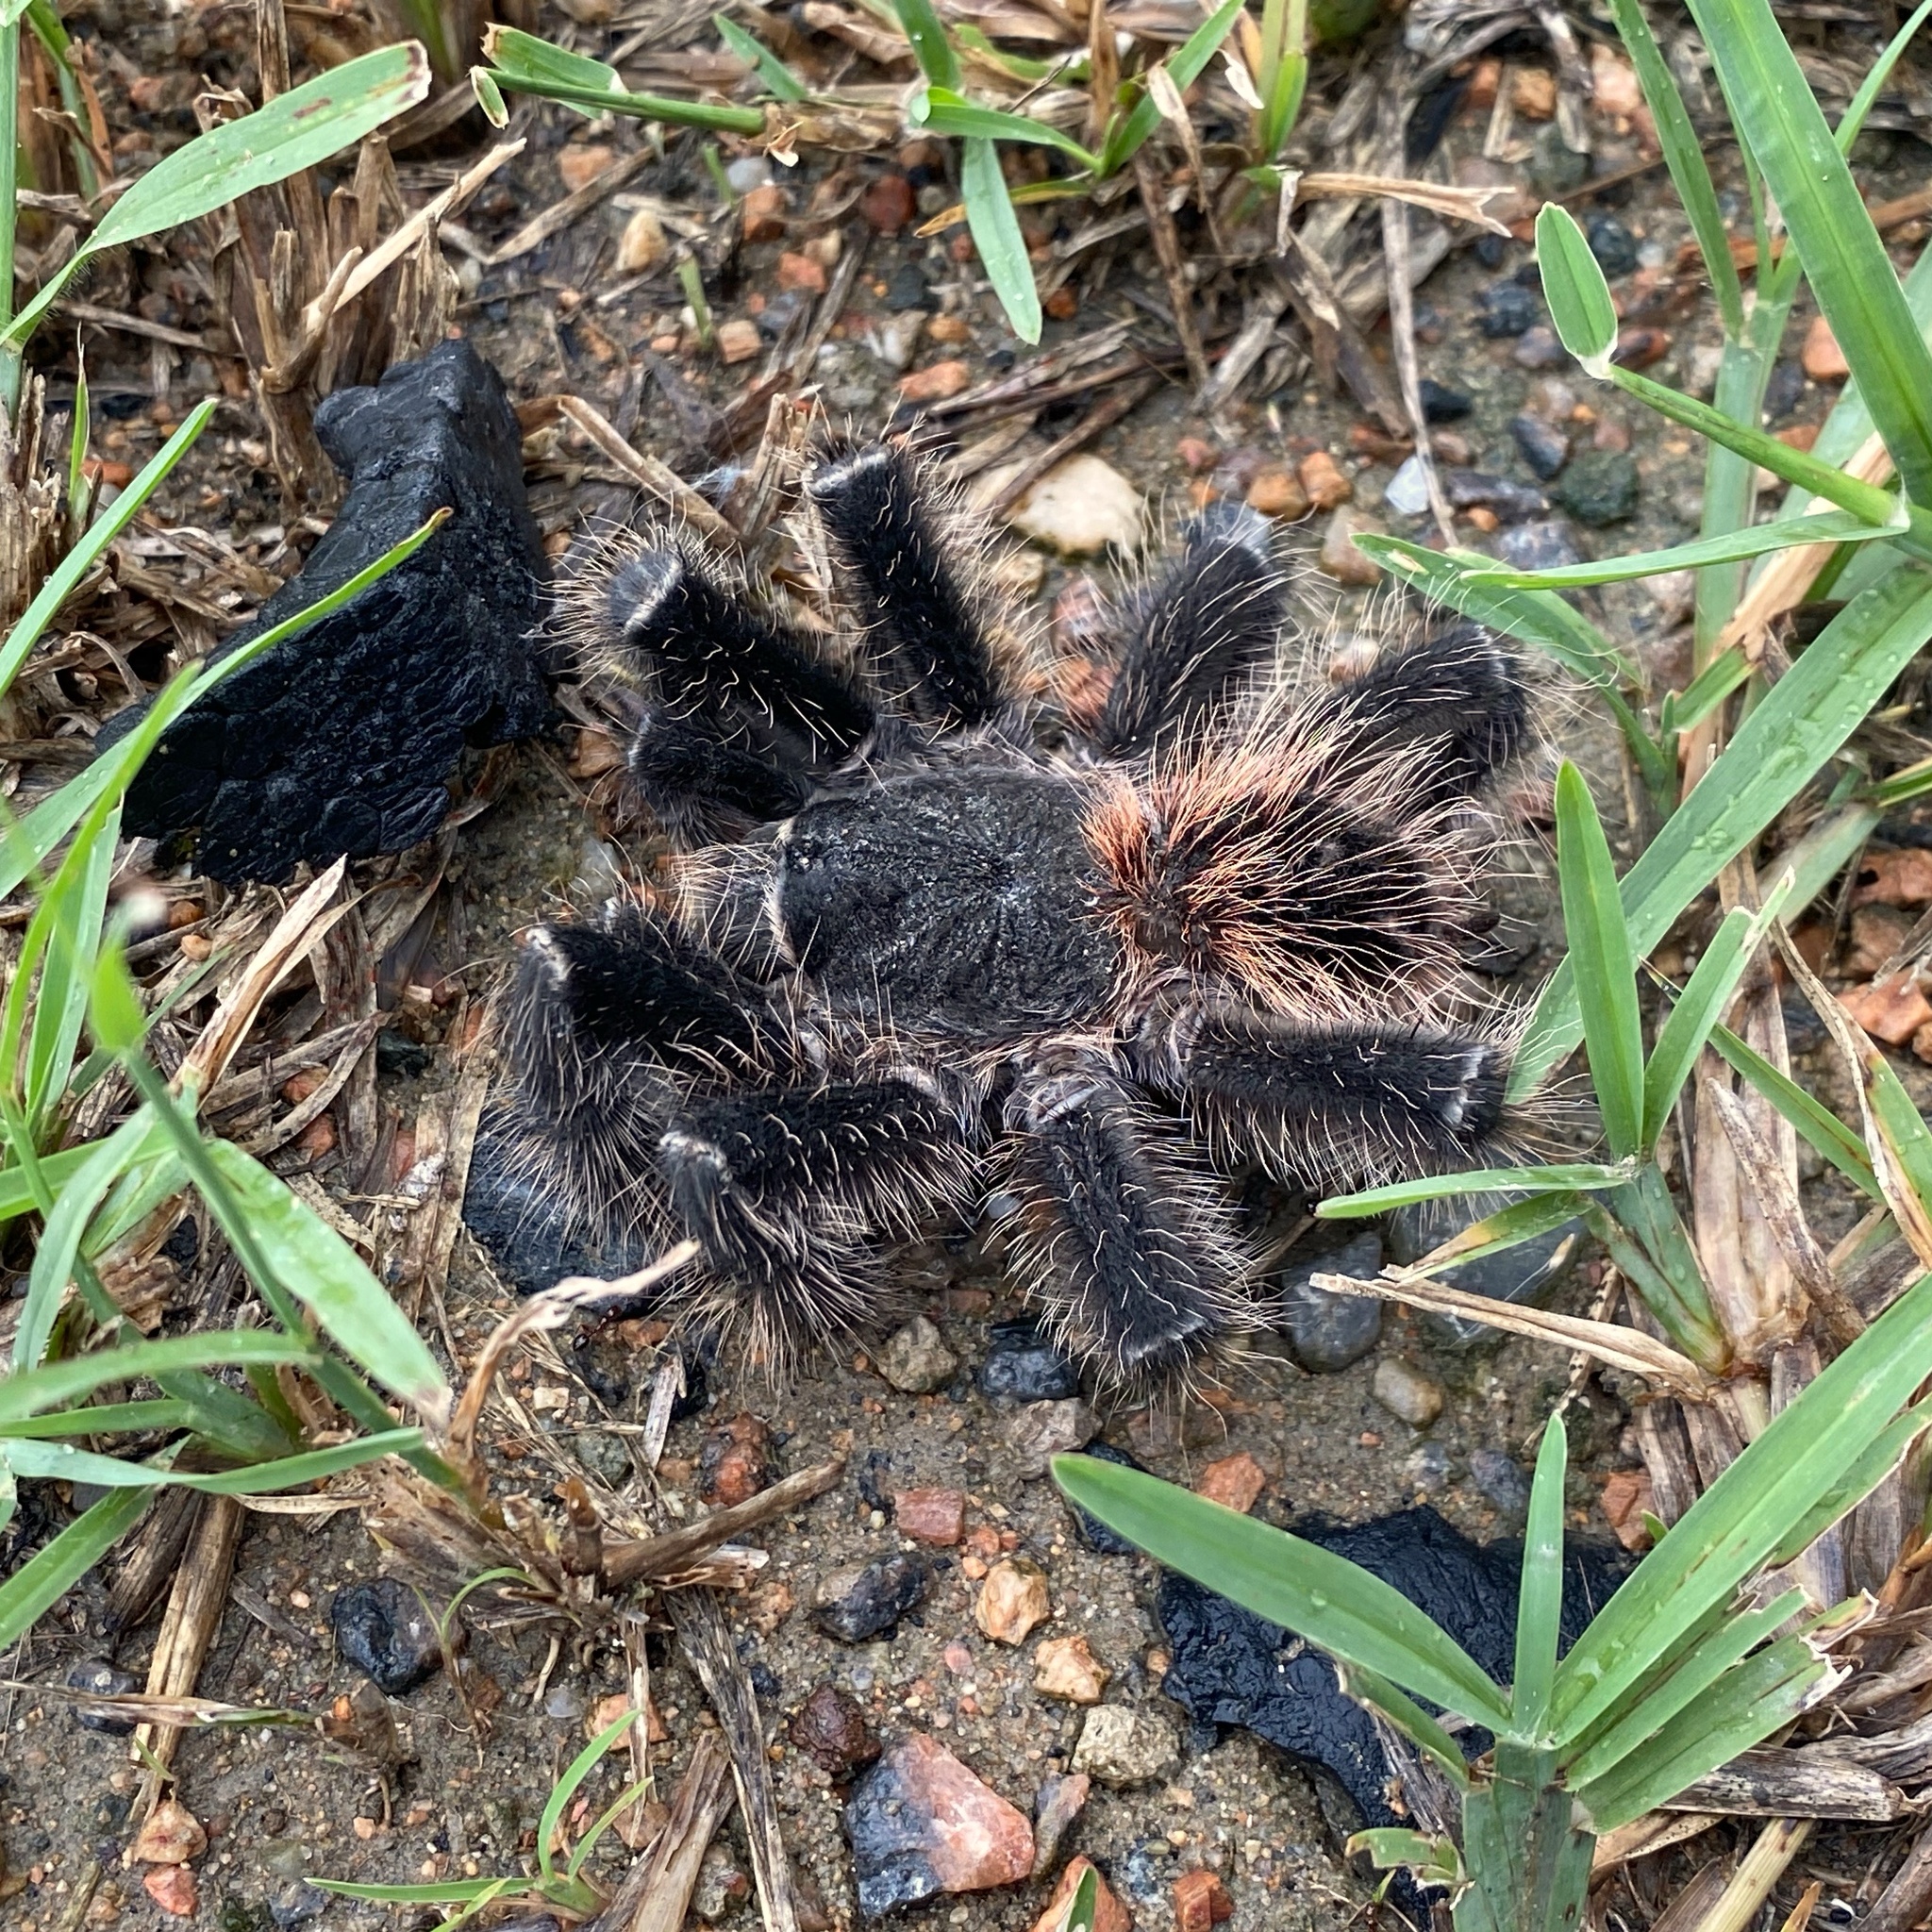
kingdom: Animalia
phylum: Arthropoda
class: Arachnida
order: Araneae
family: Theraphosidae
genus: Lasiodora
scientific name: Lasiodora parahybana
